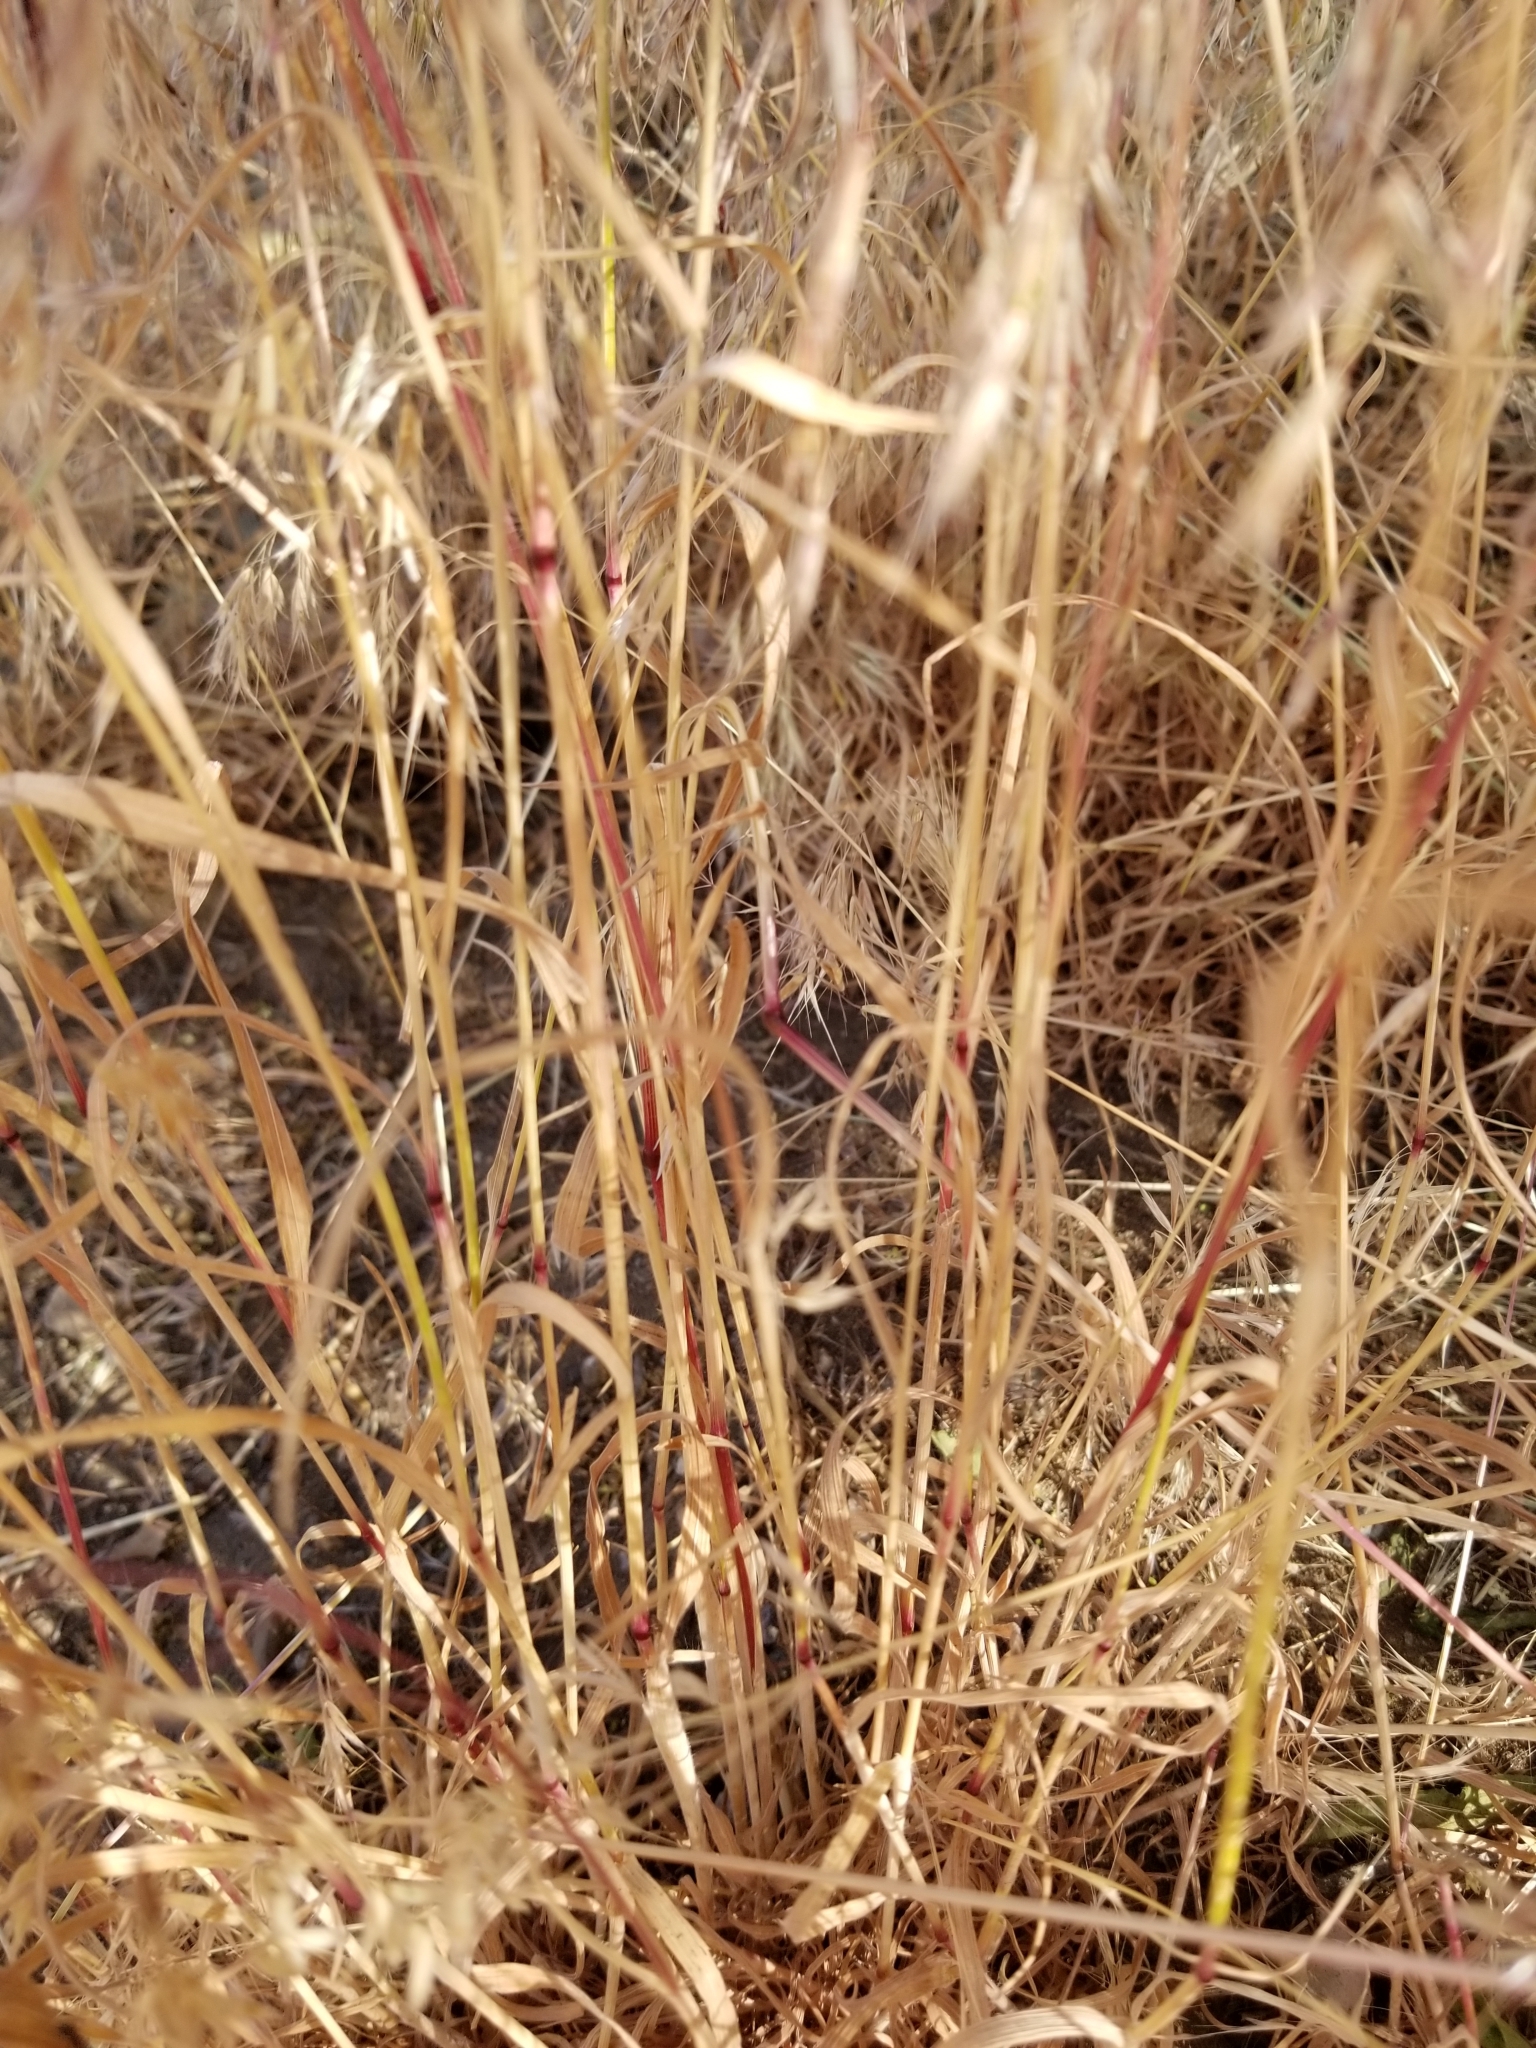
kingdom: Plantae
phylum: Tracheophyta
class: Liliopsida
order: Poales
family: Poaceae
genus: Bromus
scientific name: Bromus tectorum
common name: Cheatgrass
